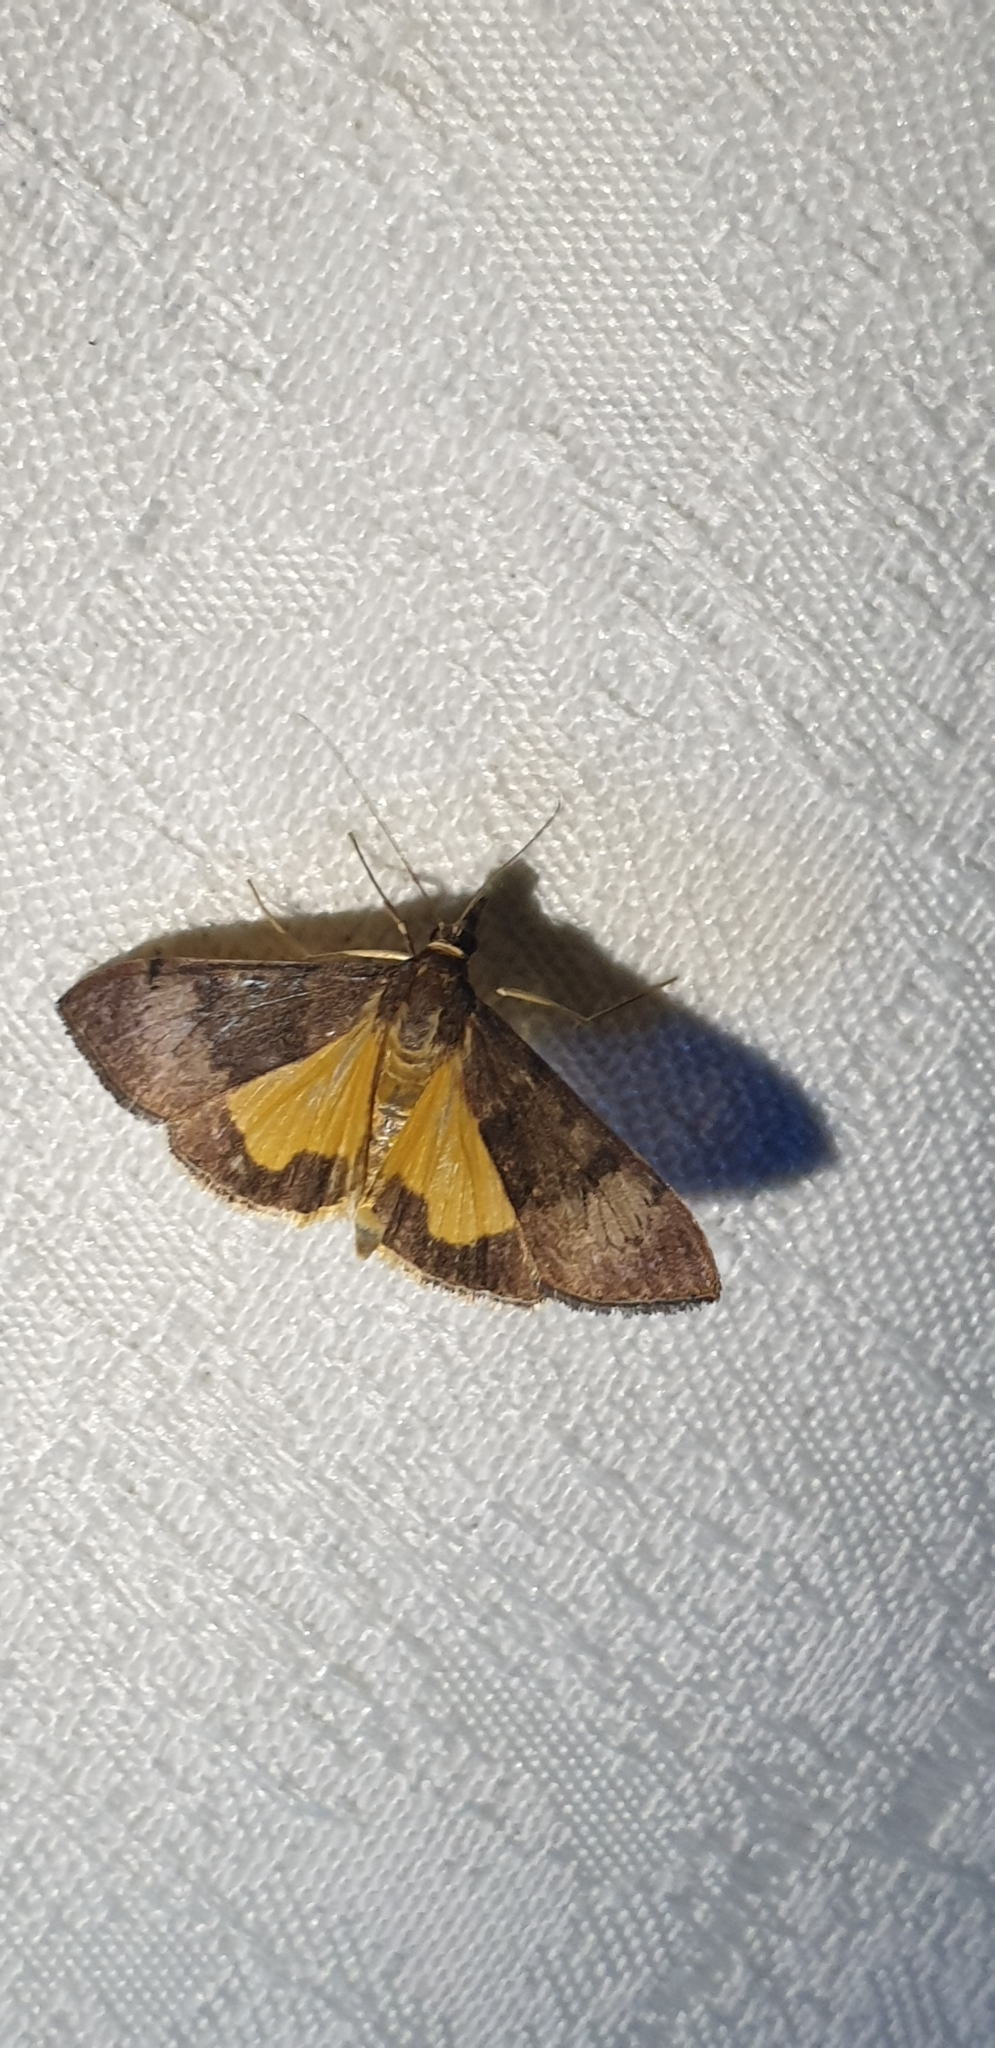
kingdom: Animalia
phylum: Arthropoda
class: Insecta
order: Lepidoptera
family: Crambidae
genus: Uresiphita
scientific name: Uresiphita ornithopteralis
